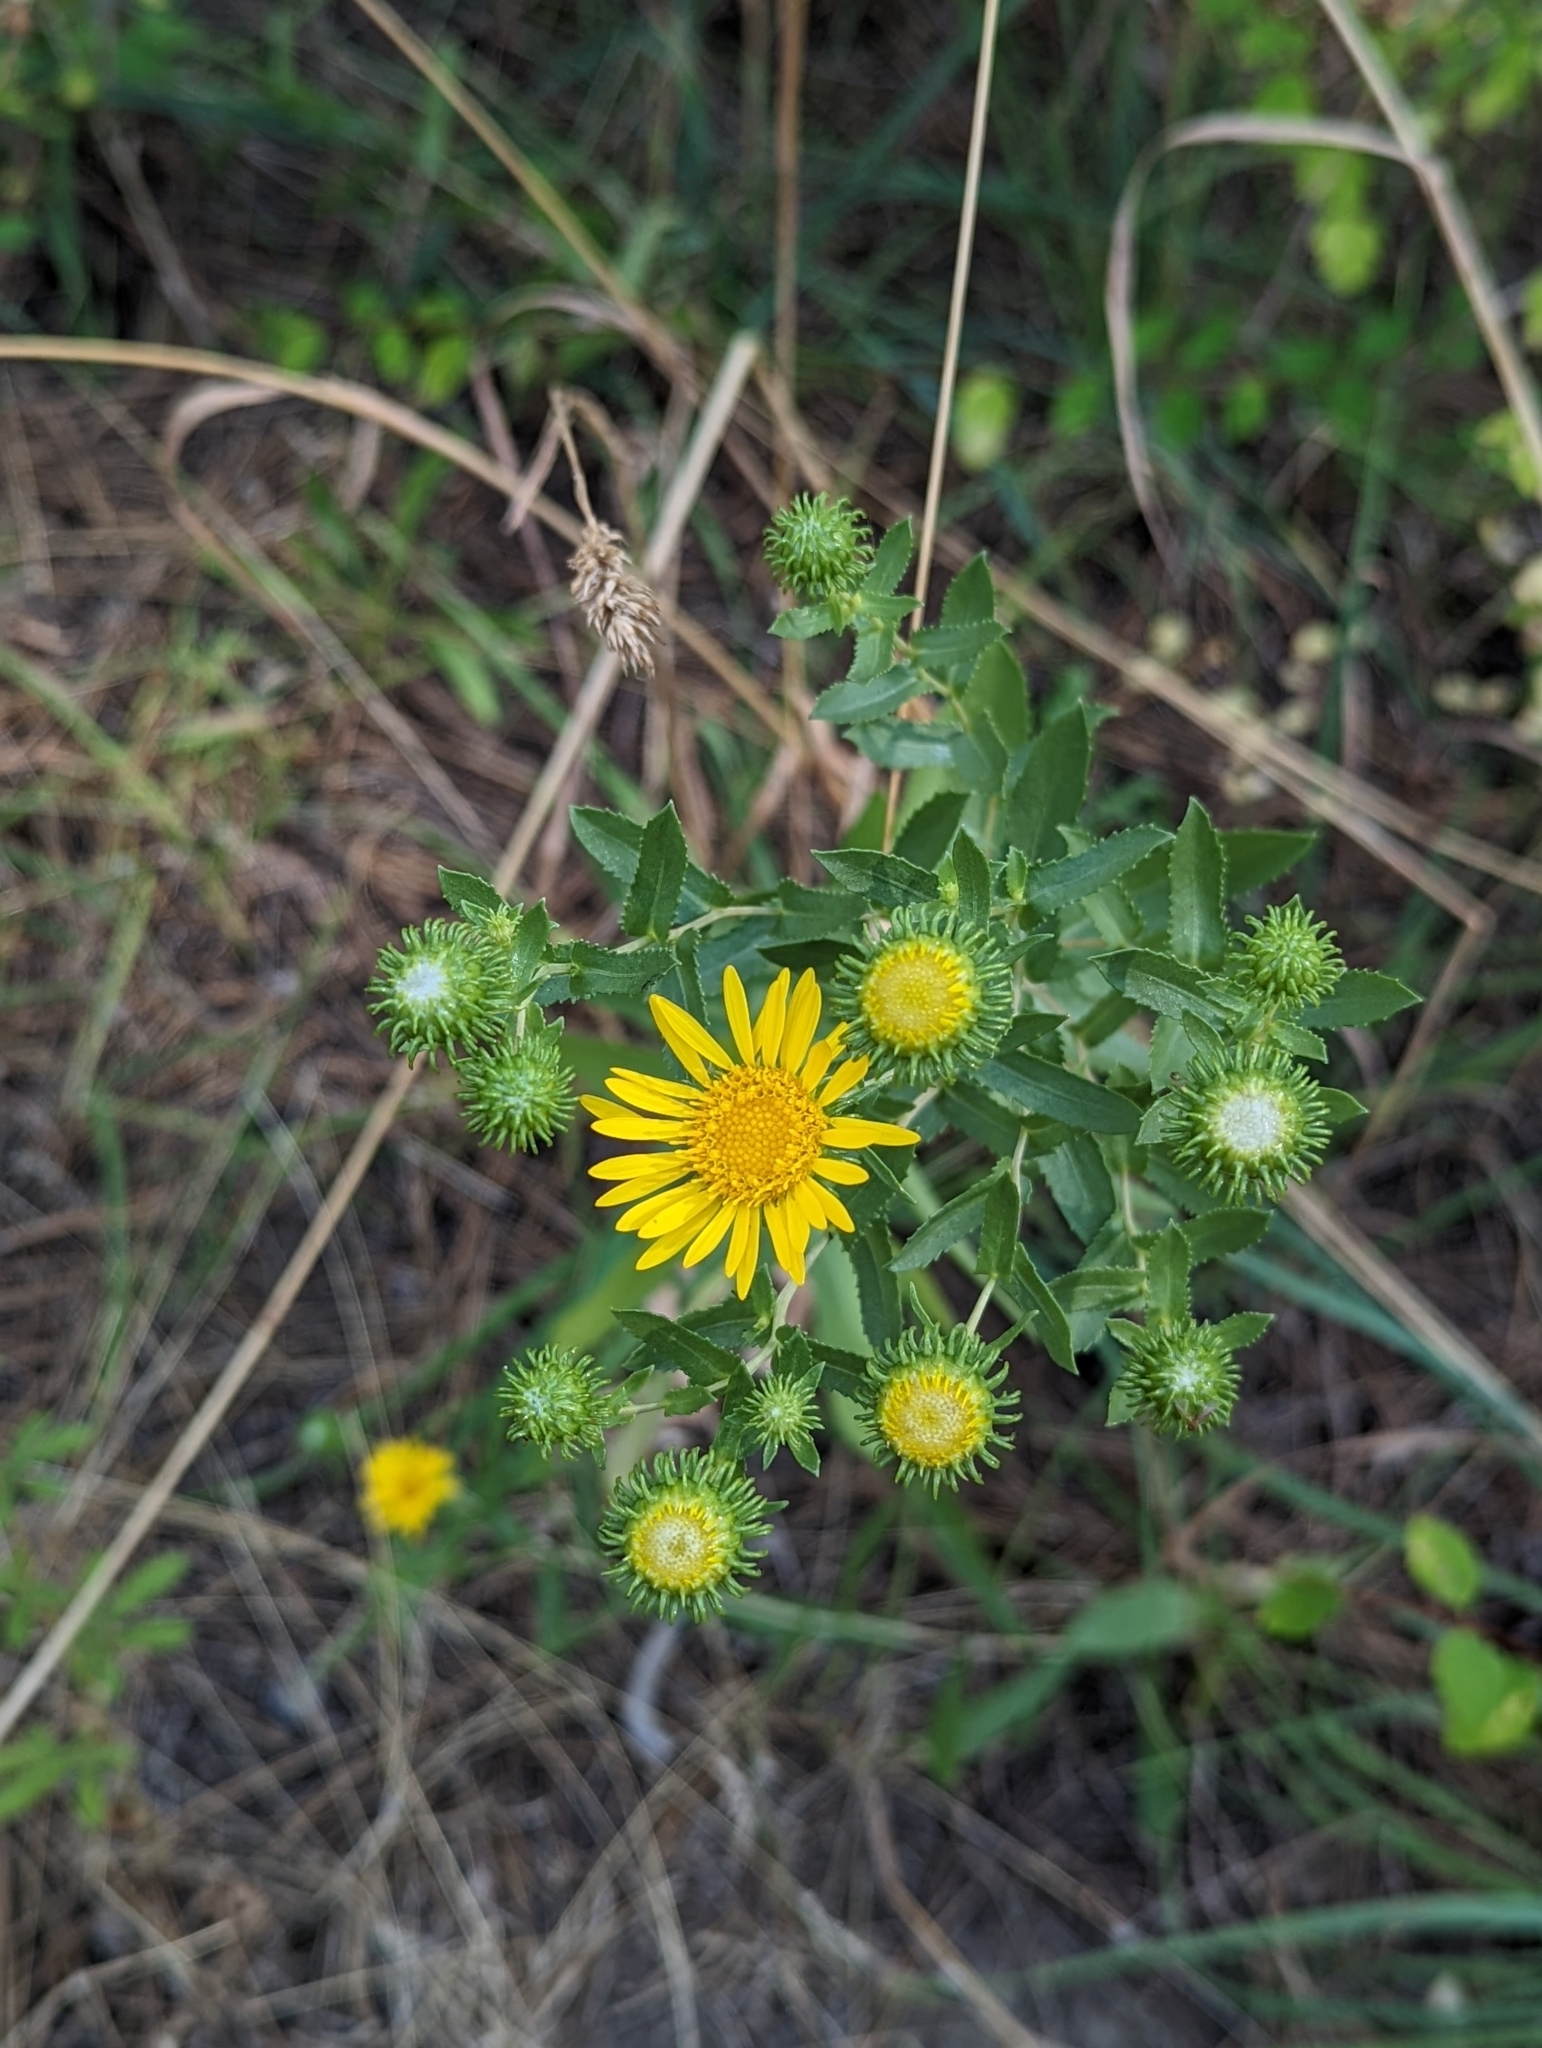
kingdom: Plantae
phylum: Tracheophyta
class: Magnoliopsida
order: Asterales
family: Asteraceae
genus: Grindelia
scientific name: Grindelia squarrosa
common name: Curly-cup gumweed
